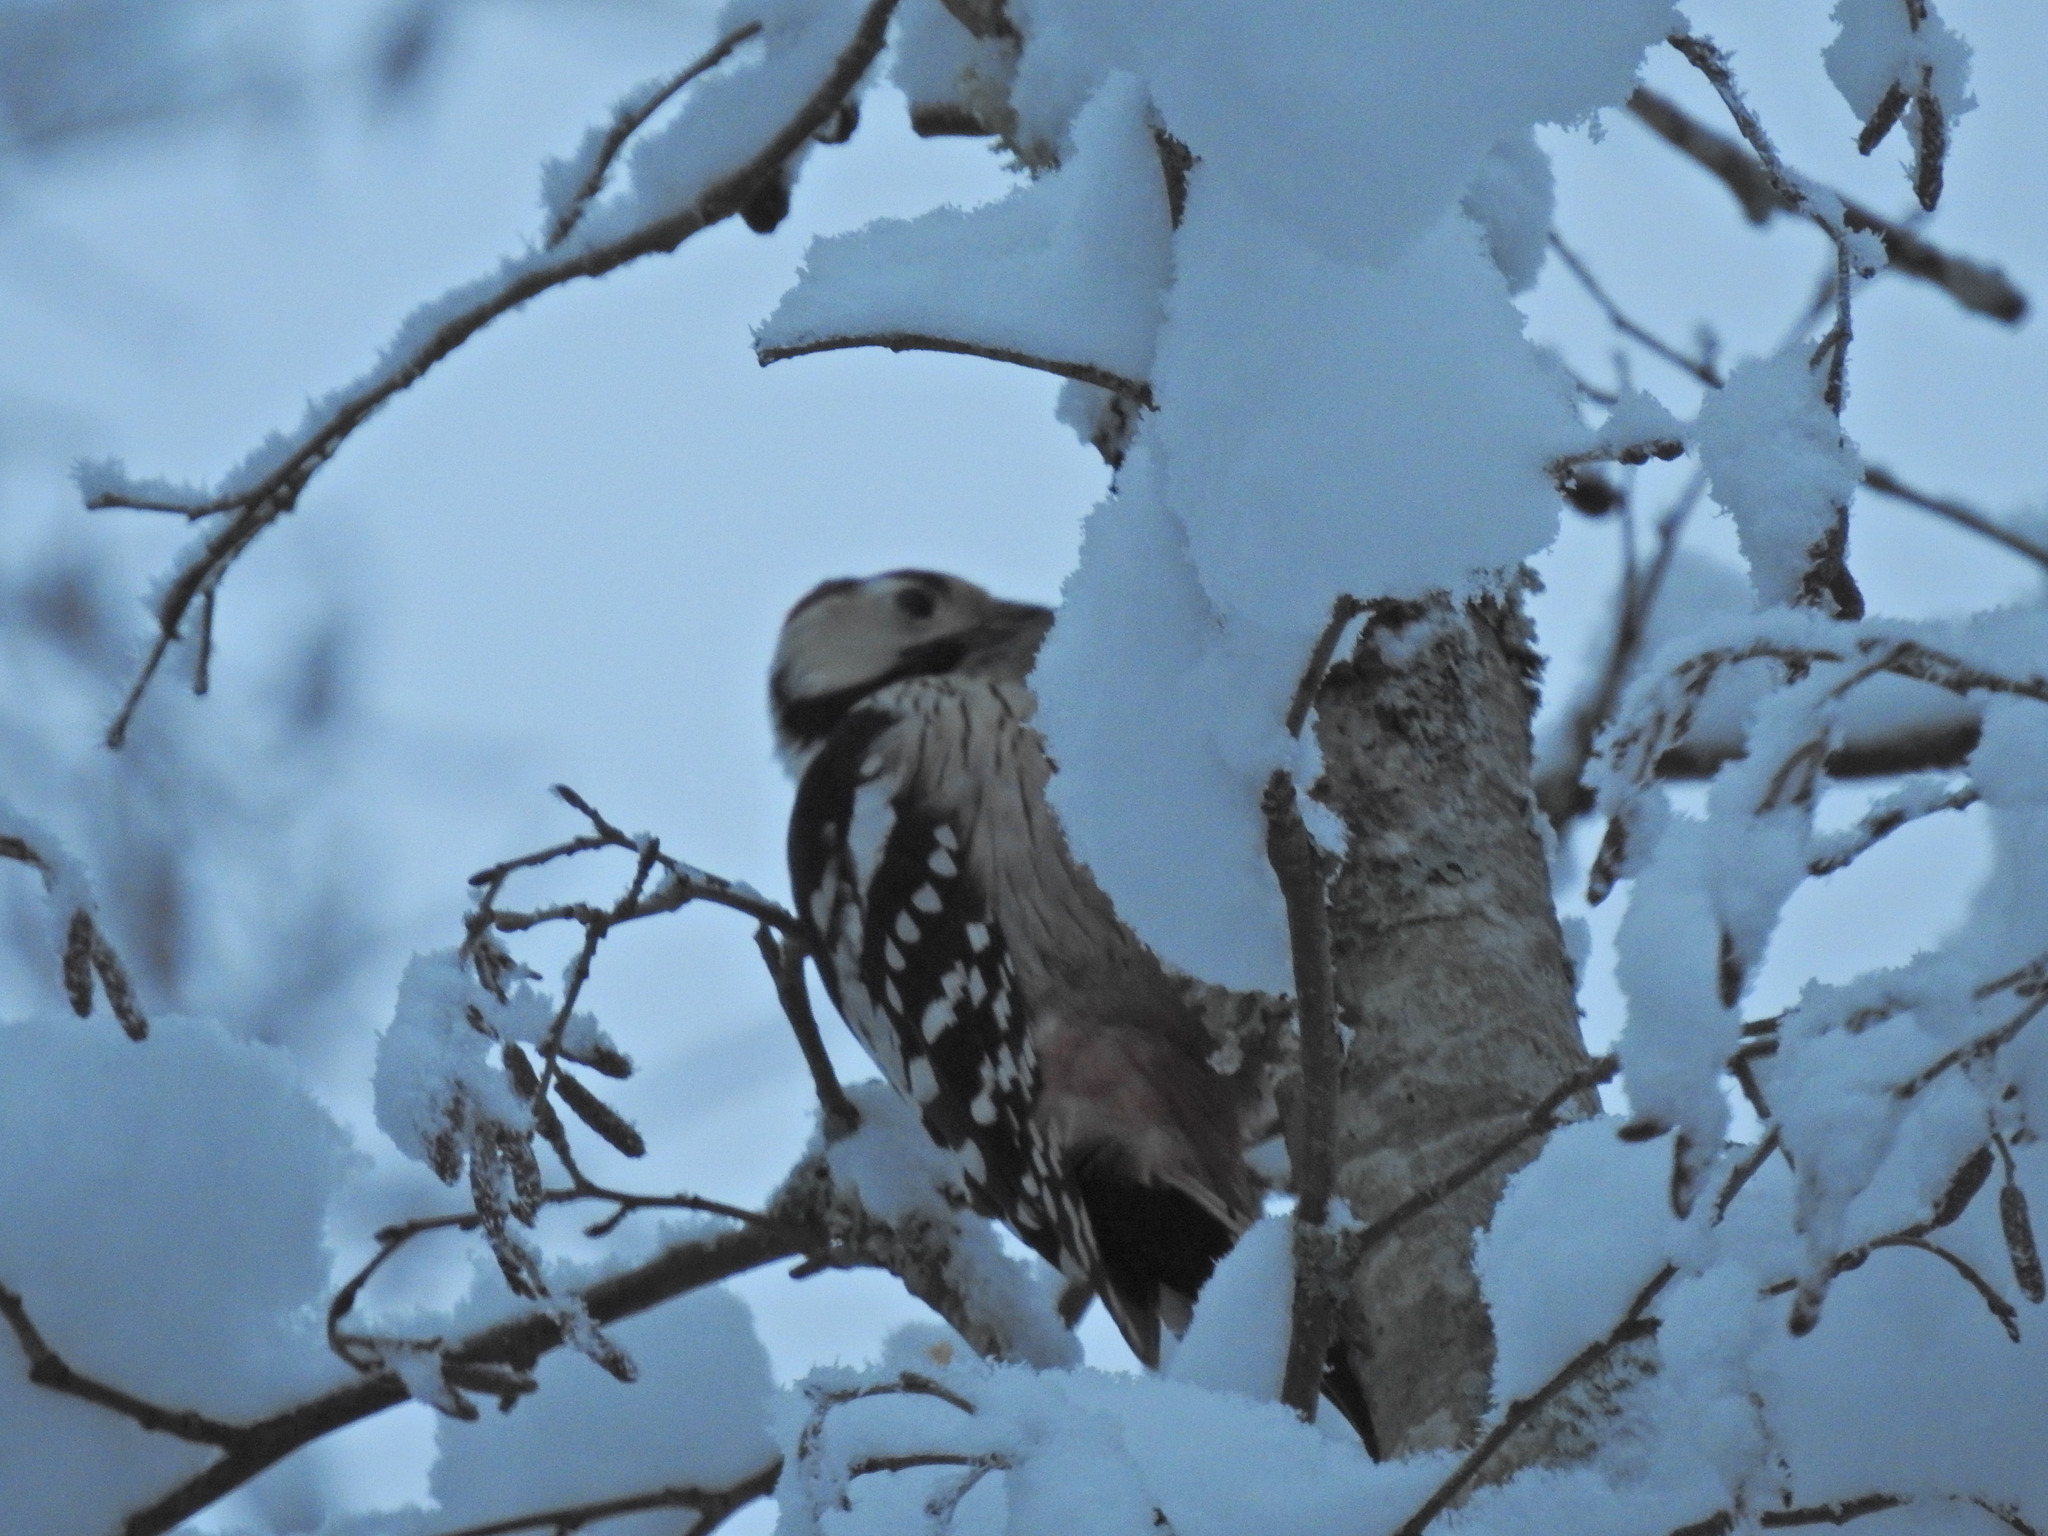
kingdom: Animalia
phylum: Chordata
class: Aves
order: Piciformes
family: Picidae
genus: Dendrocopos
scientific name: Dendrocopos leucotos
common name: White-backed woodpecker
